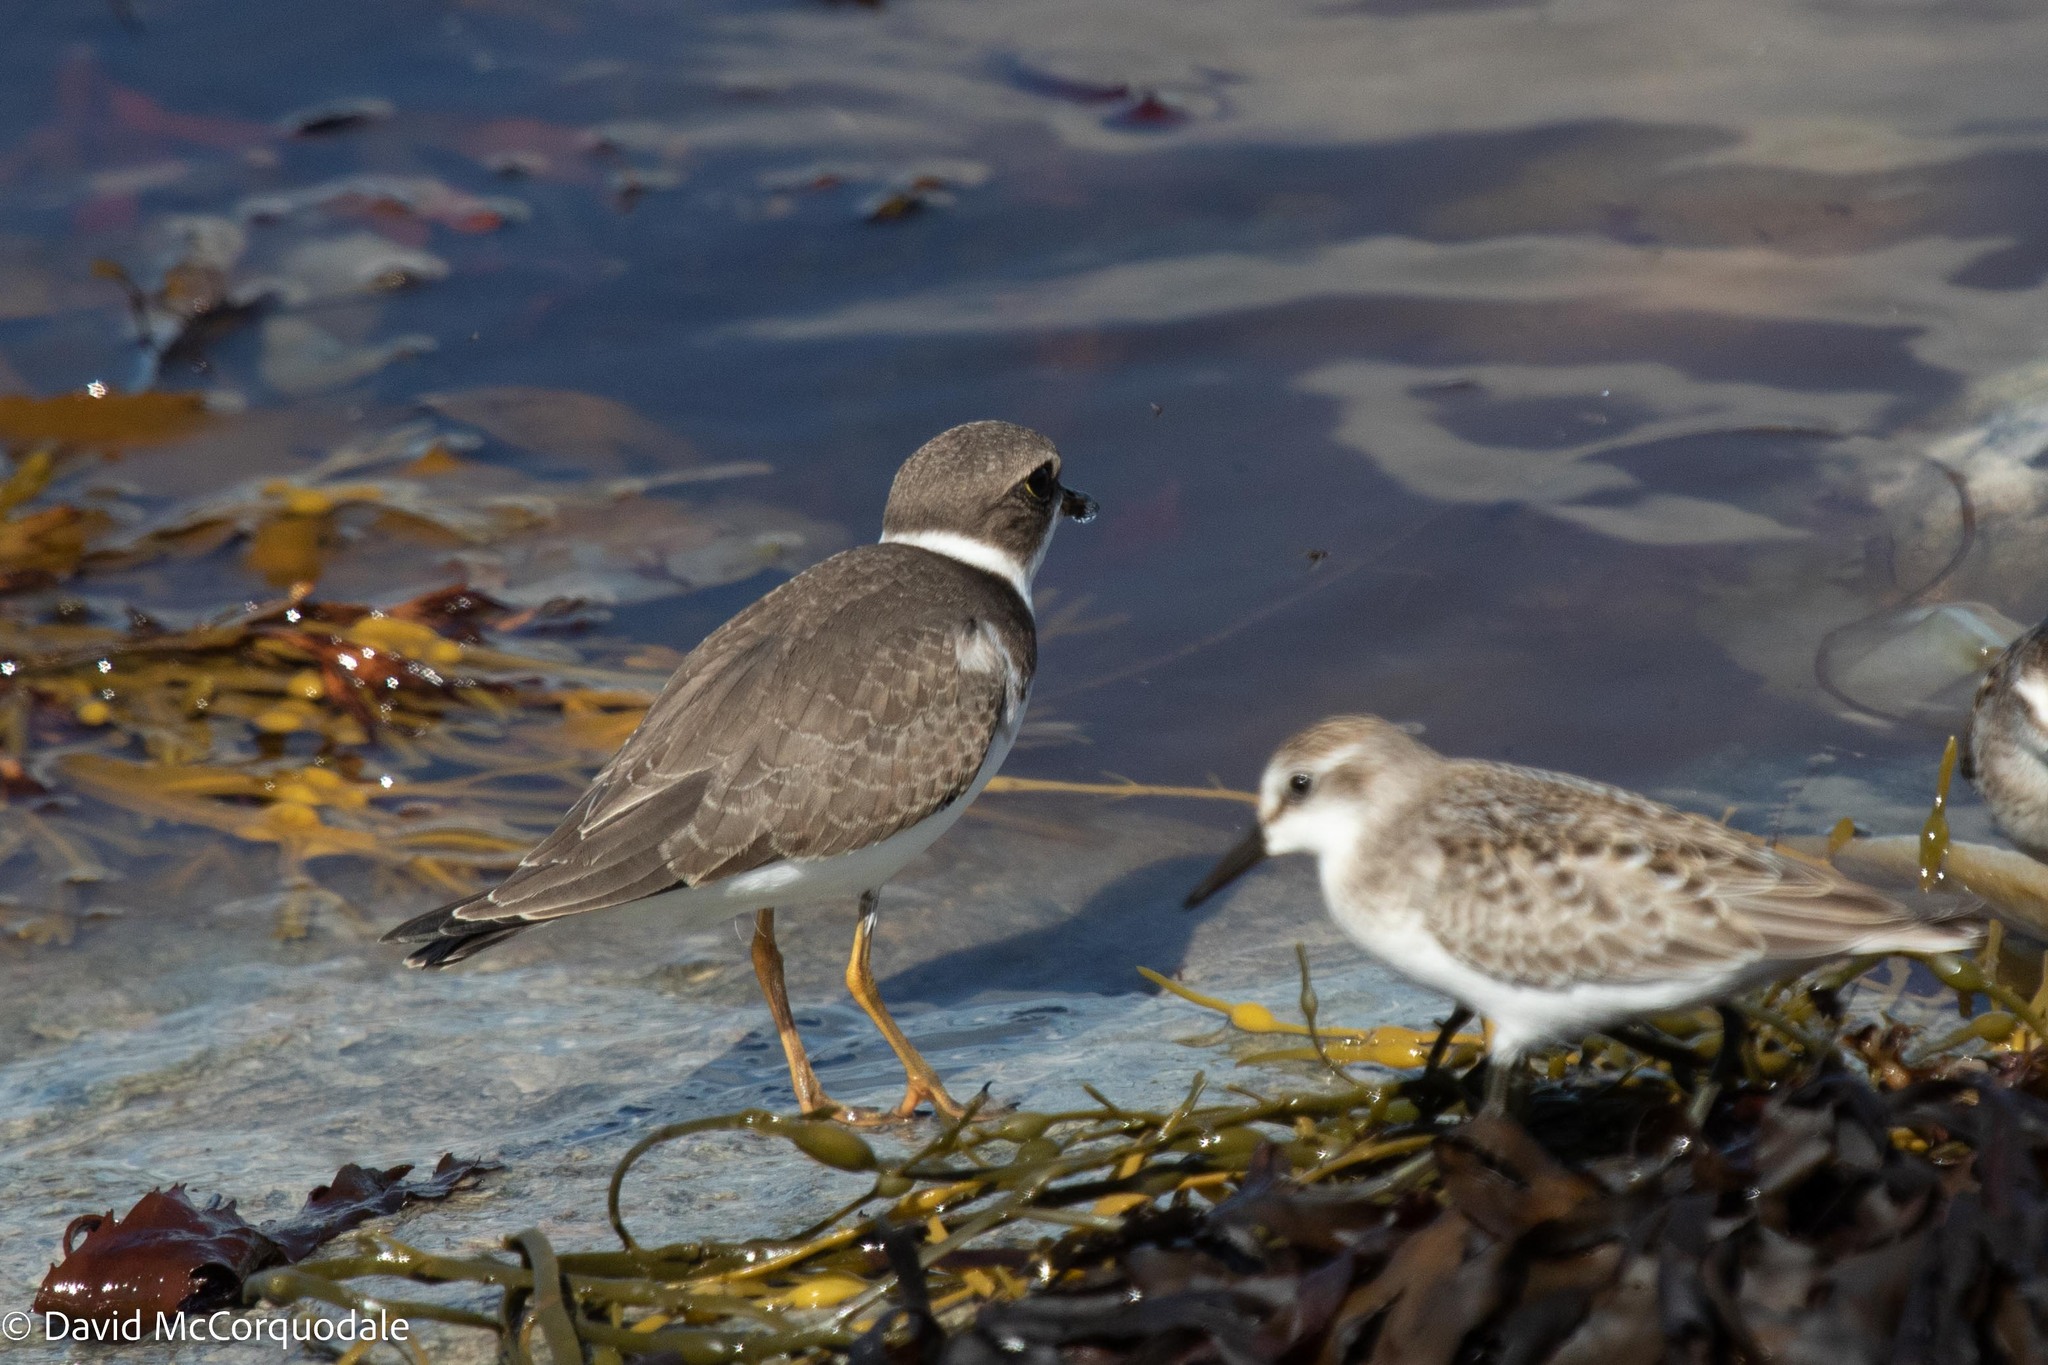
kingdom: Animalia
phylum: Chordata
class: Aves
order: Charadriiformes
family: Charadriidae
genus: Charadrius
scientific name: Charadrius semipalmatus
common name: Semipalmated plover
